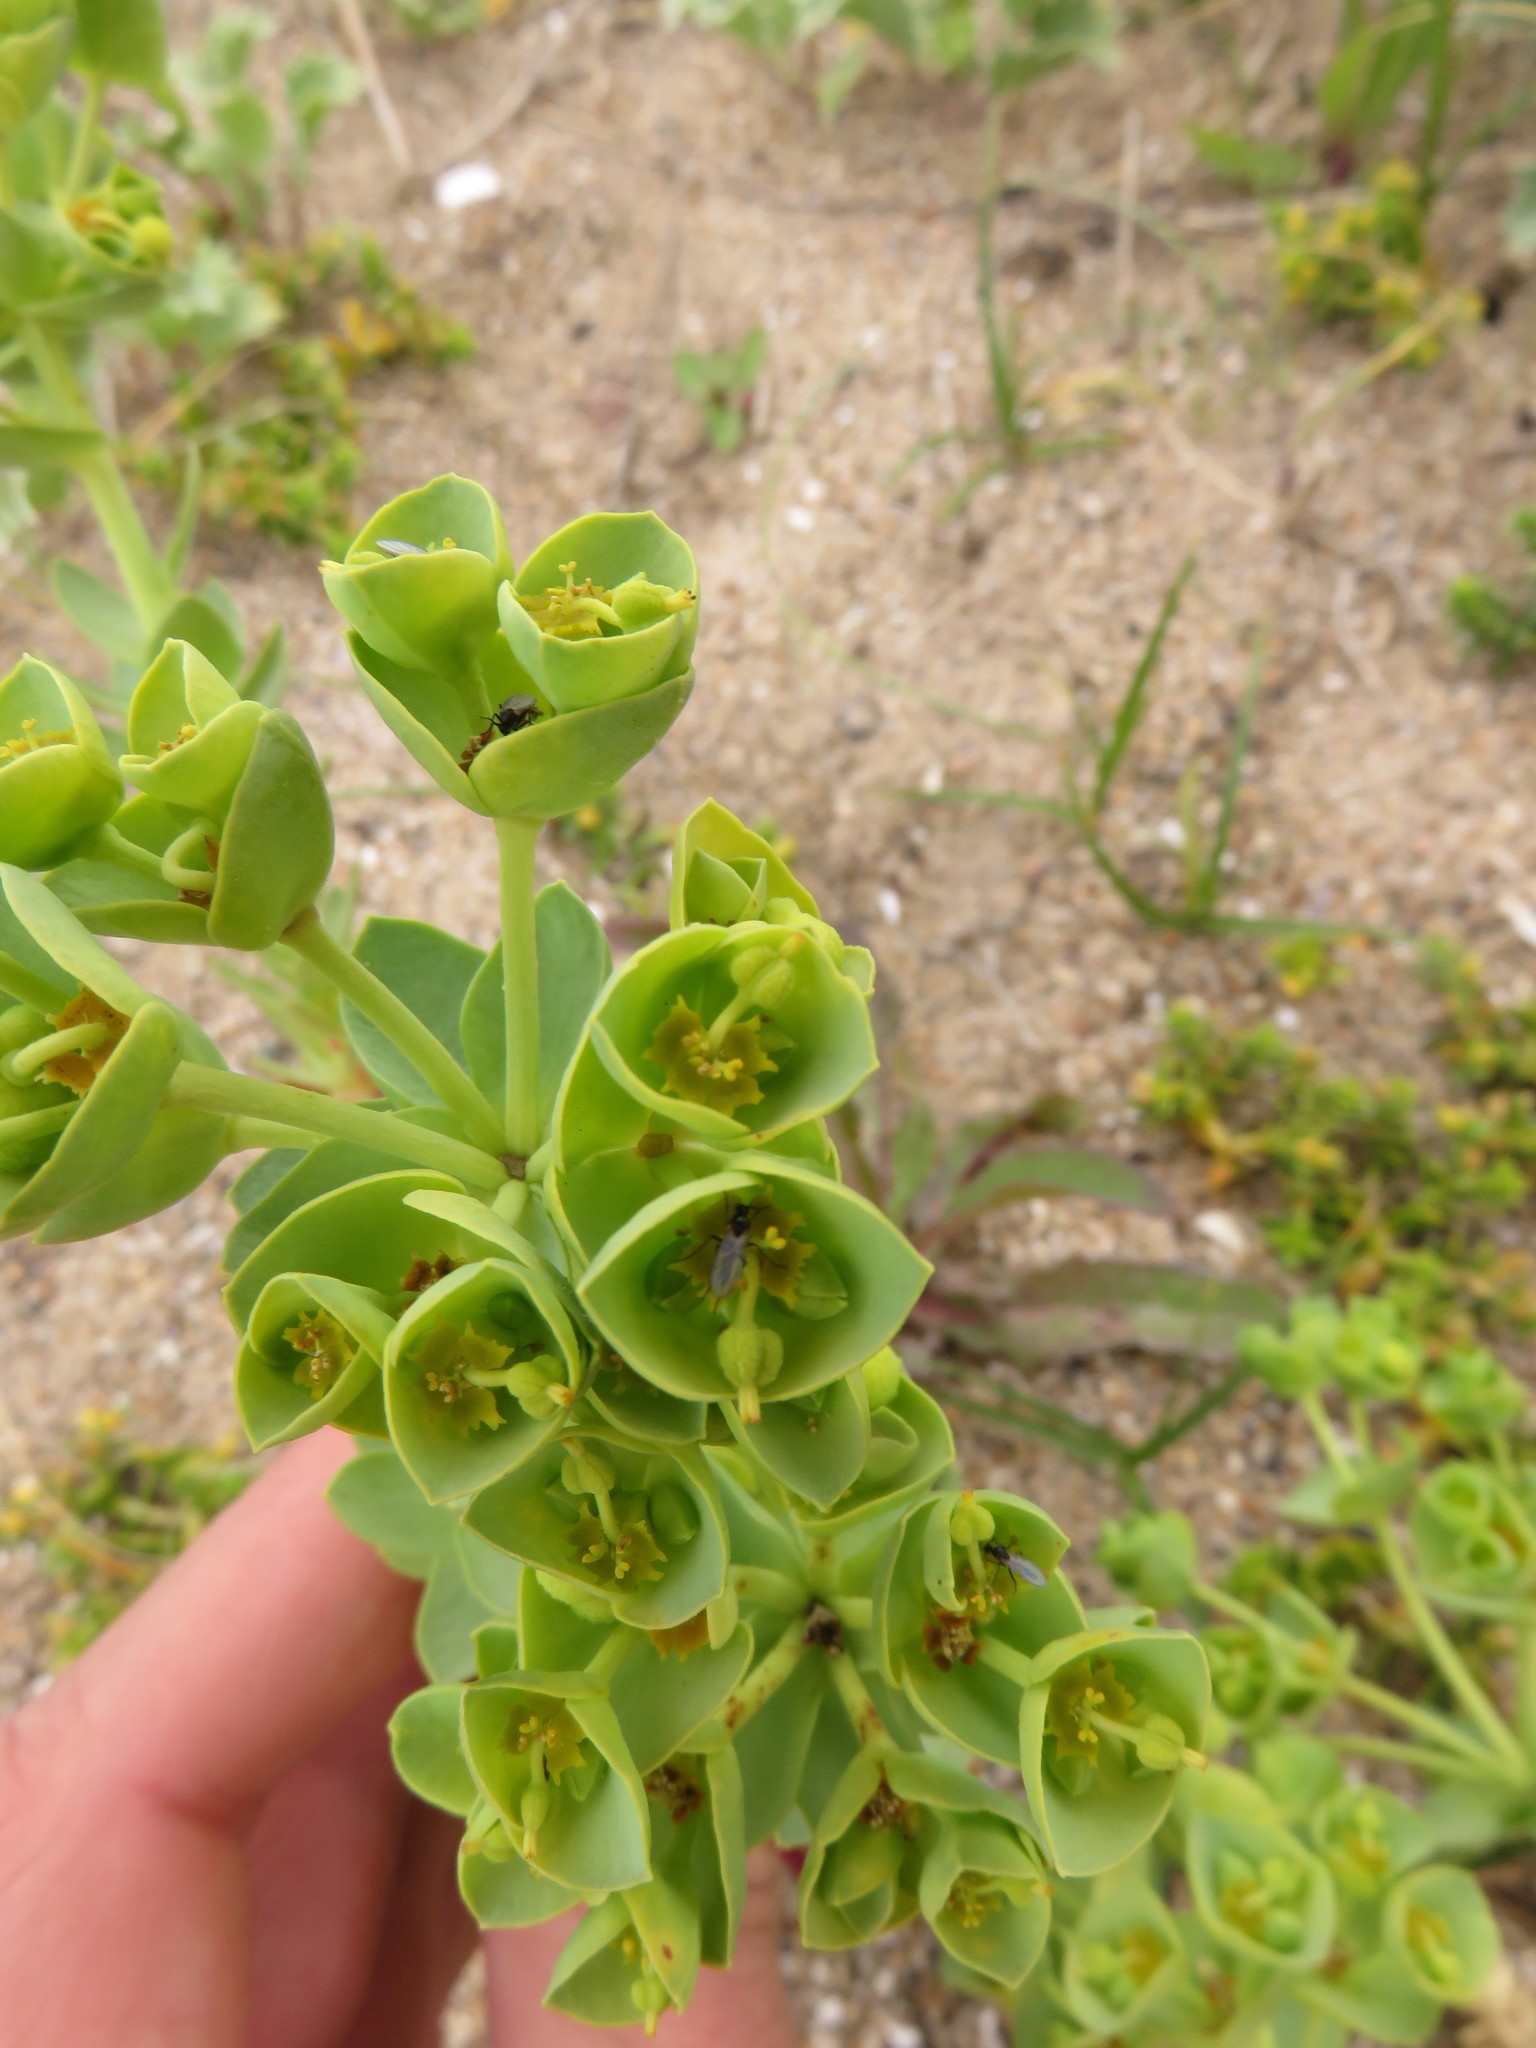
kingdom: Plantae
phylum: Tracheophyta
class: Magnoliopsida
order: Malpighiales
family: Euphorbiaceae
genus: Euphorbia
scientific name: Euphorbia paralias
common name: Sea spurge
